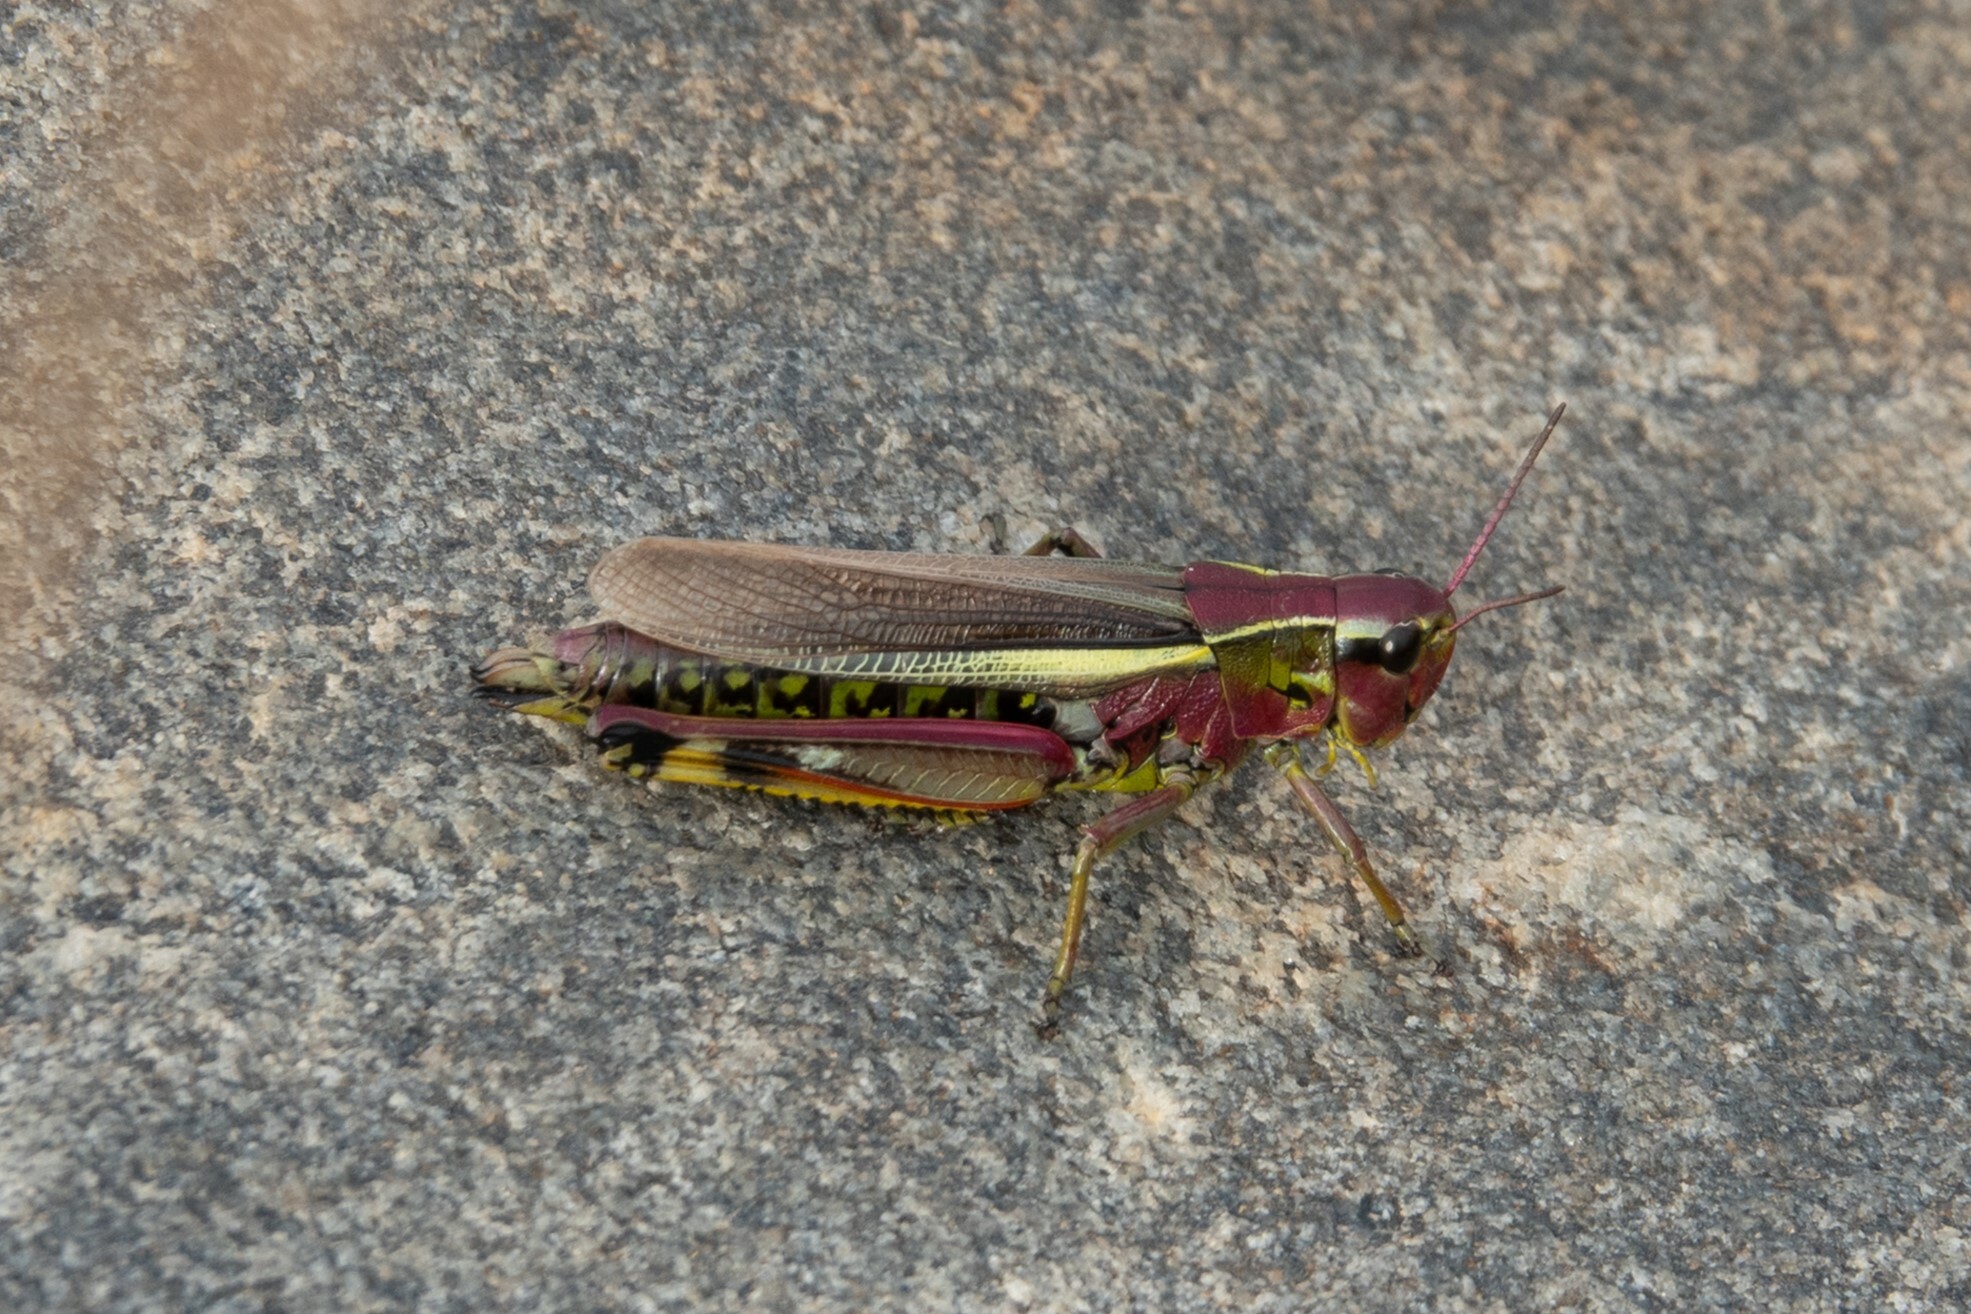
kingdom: Animalia
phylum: Arthropoda
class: Insecta
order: Orthoptera
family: Acrididae
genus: Stethophyma
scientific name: Stethophyma grossum
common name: Large marsh grasshopper
